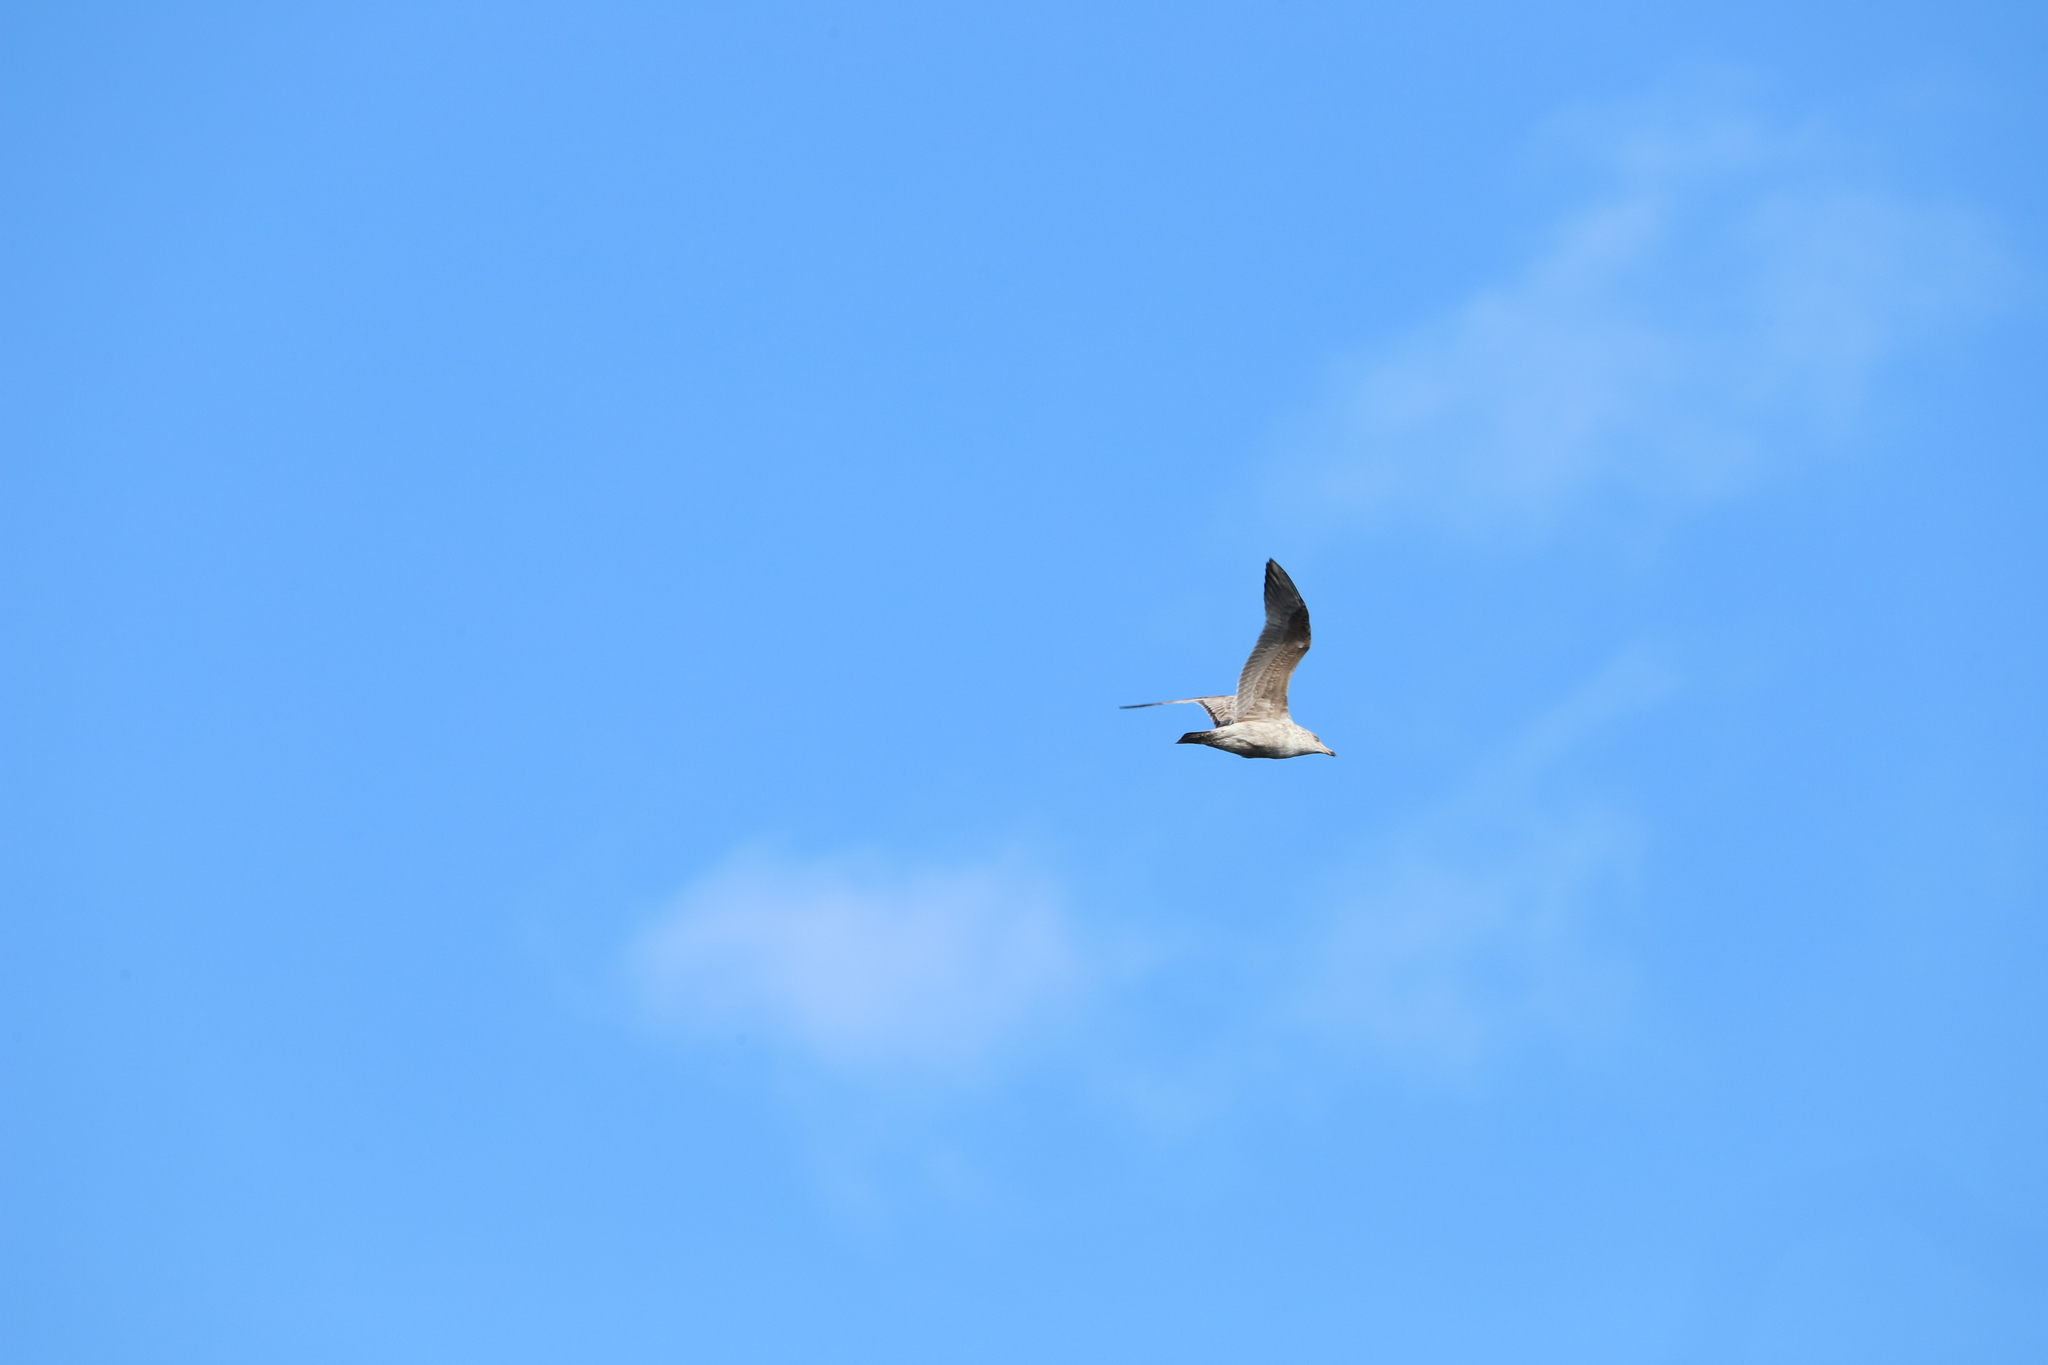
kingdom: Animalia
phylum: Chordata
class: Aves
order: Charadriiformes
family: Laridae
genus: Larus
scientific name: Larus argentatus
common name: Herring gull
